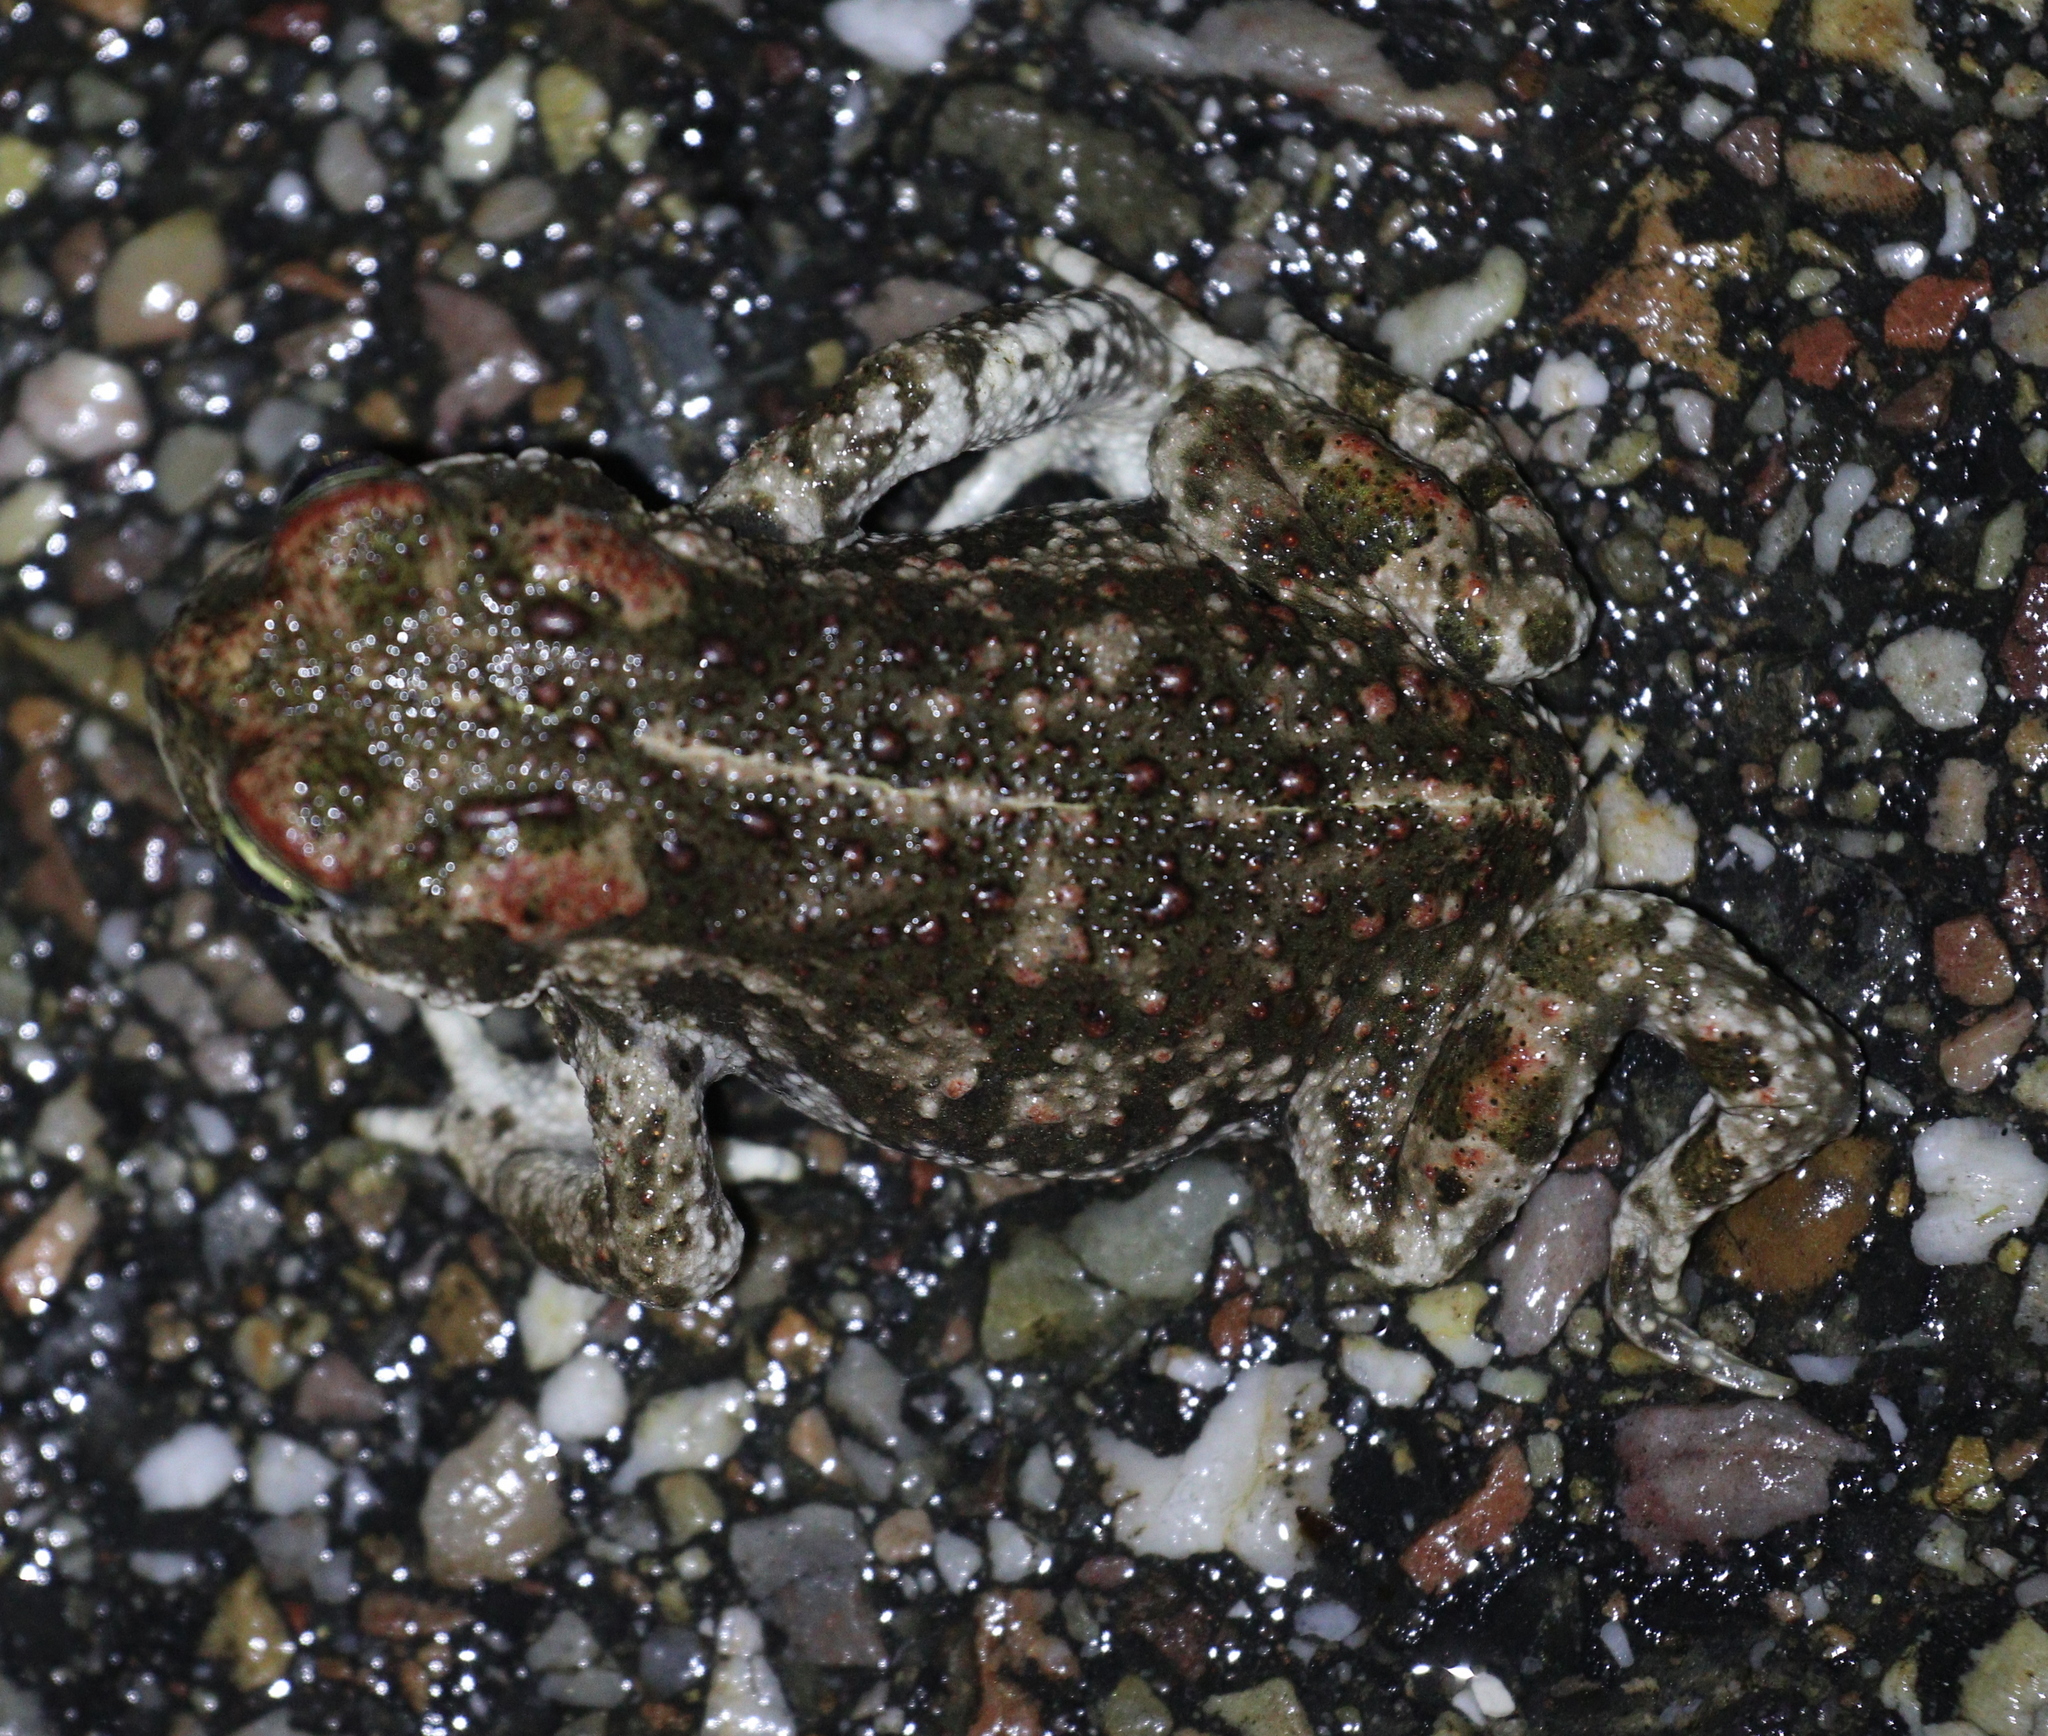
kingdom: Animalia
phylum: Chordata
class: Amphibia
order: Anura
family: Bufonidae
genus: Epidalea
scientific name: Epidalea calamita
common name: Natterjack toad
